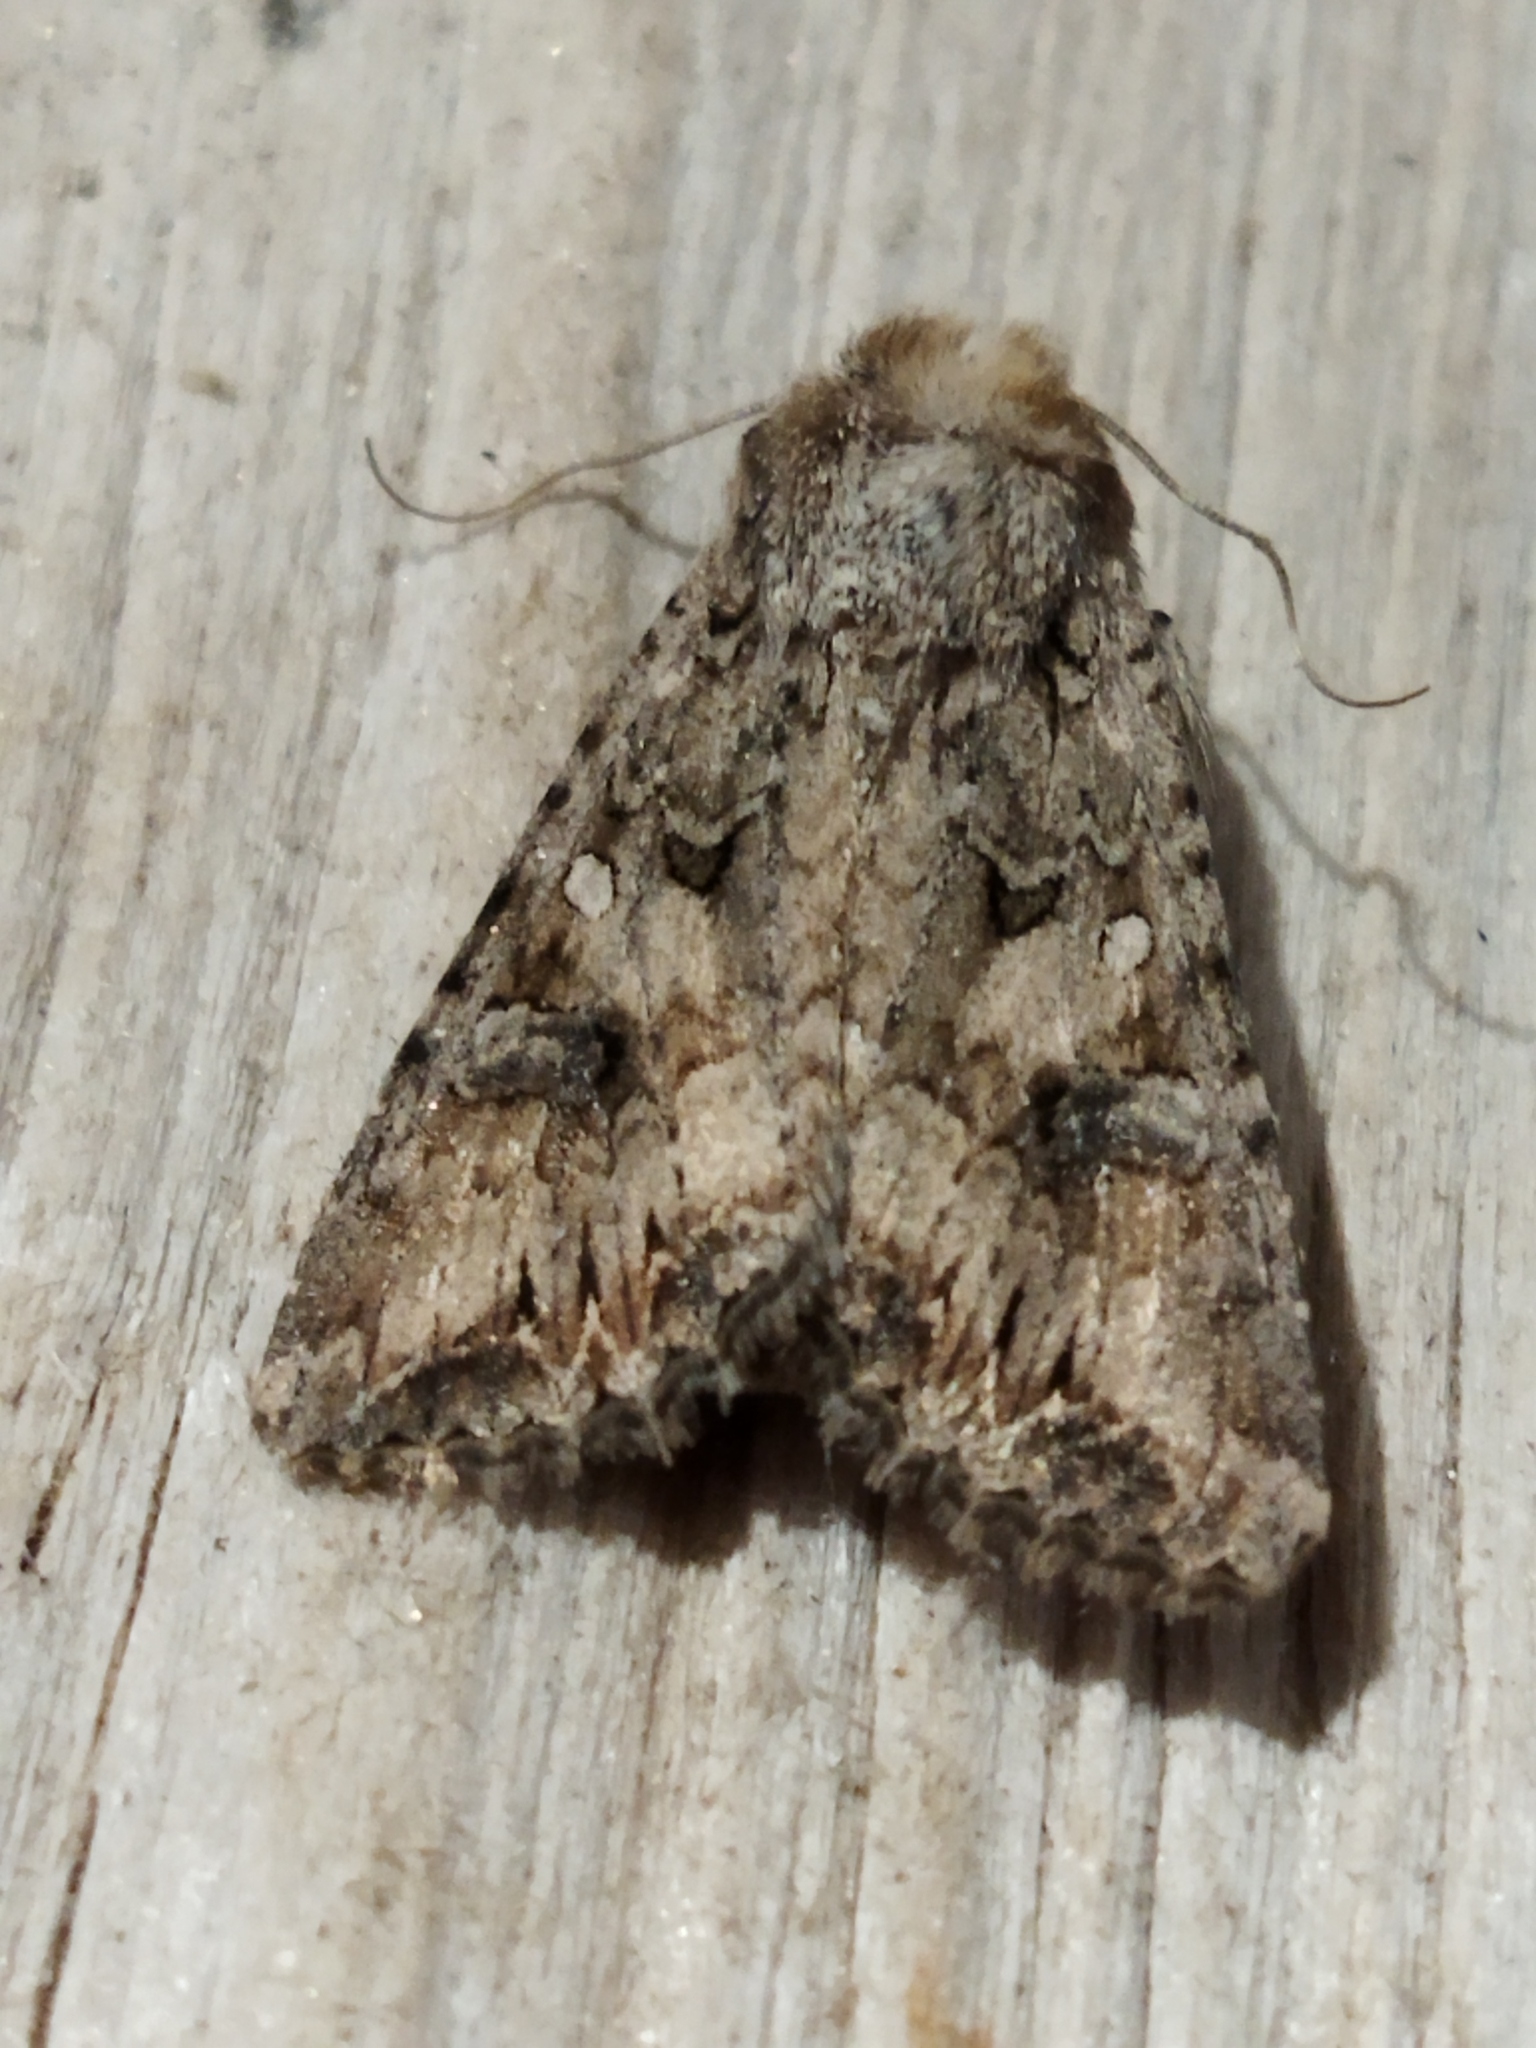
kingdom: Animalia
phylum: Arthropoda
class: Insecta
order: Lepidoptera
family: Noctuidae
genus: Anarta
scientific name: Anarta trifolii
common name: Clover cutworm moth
